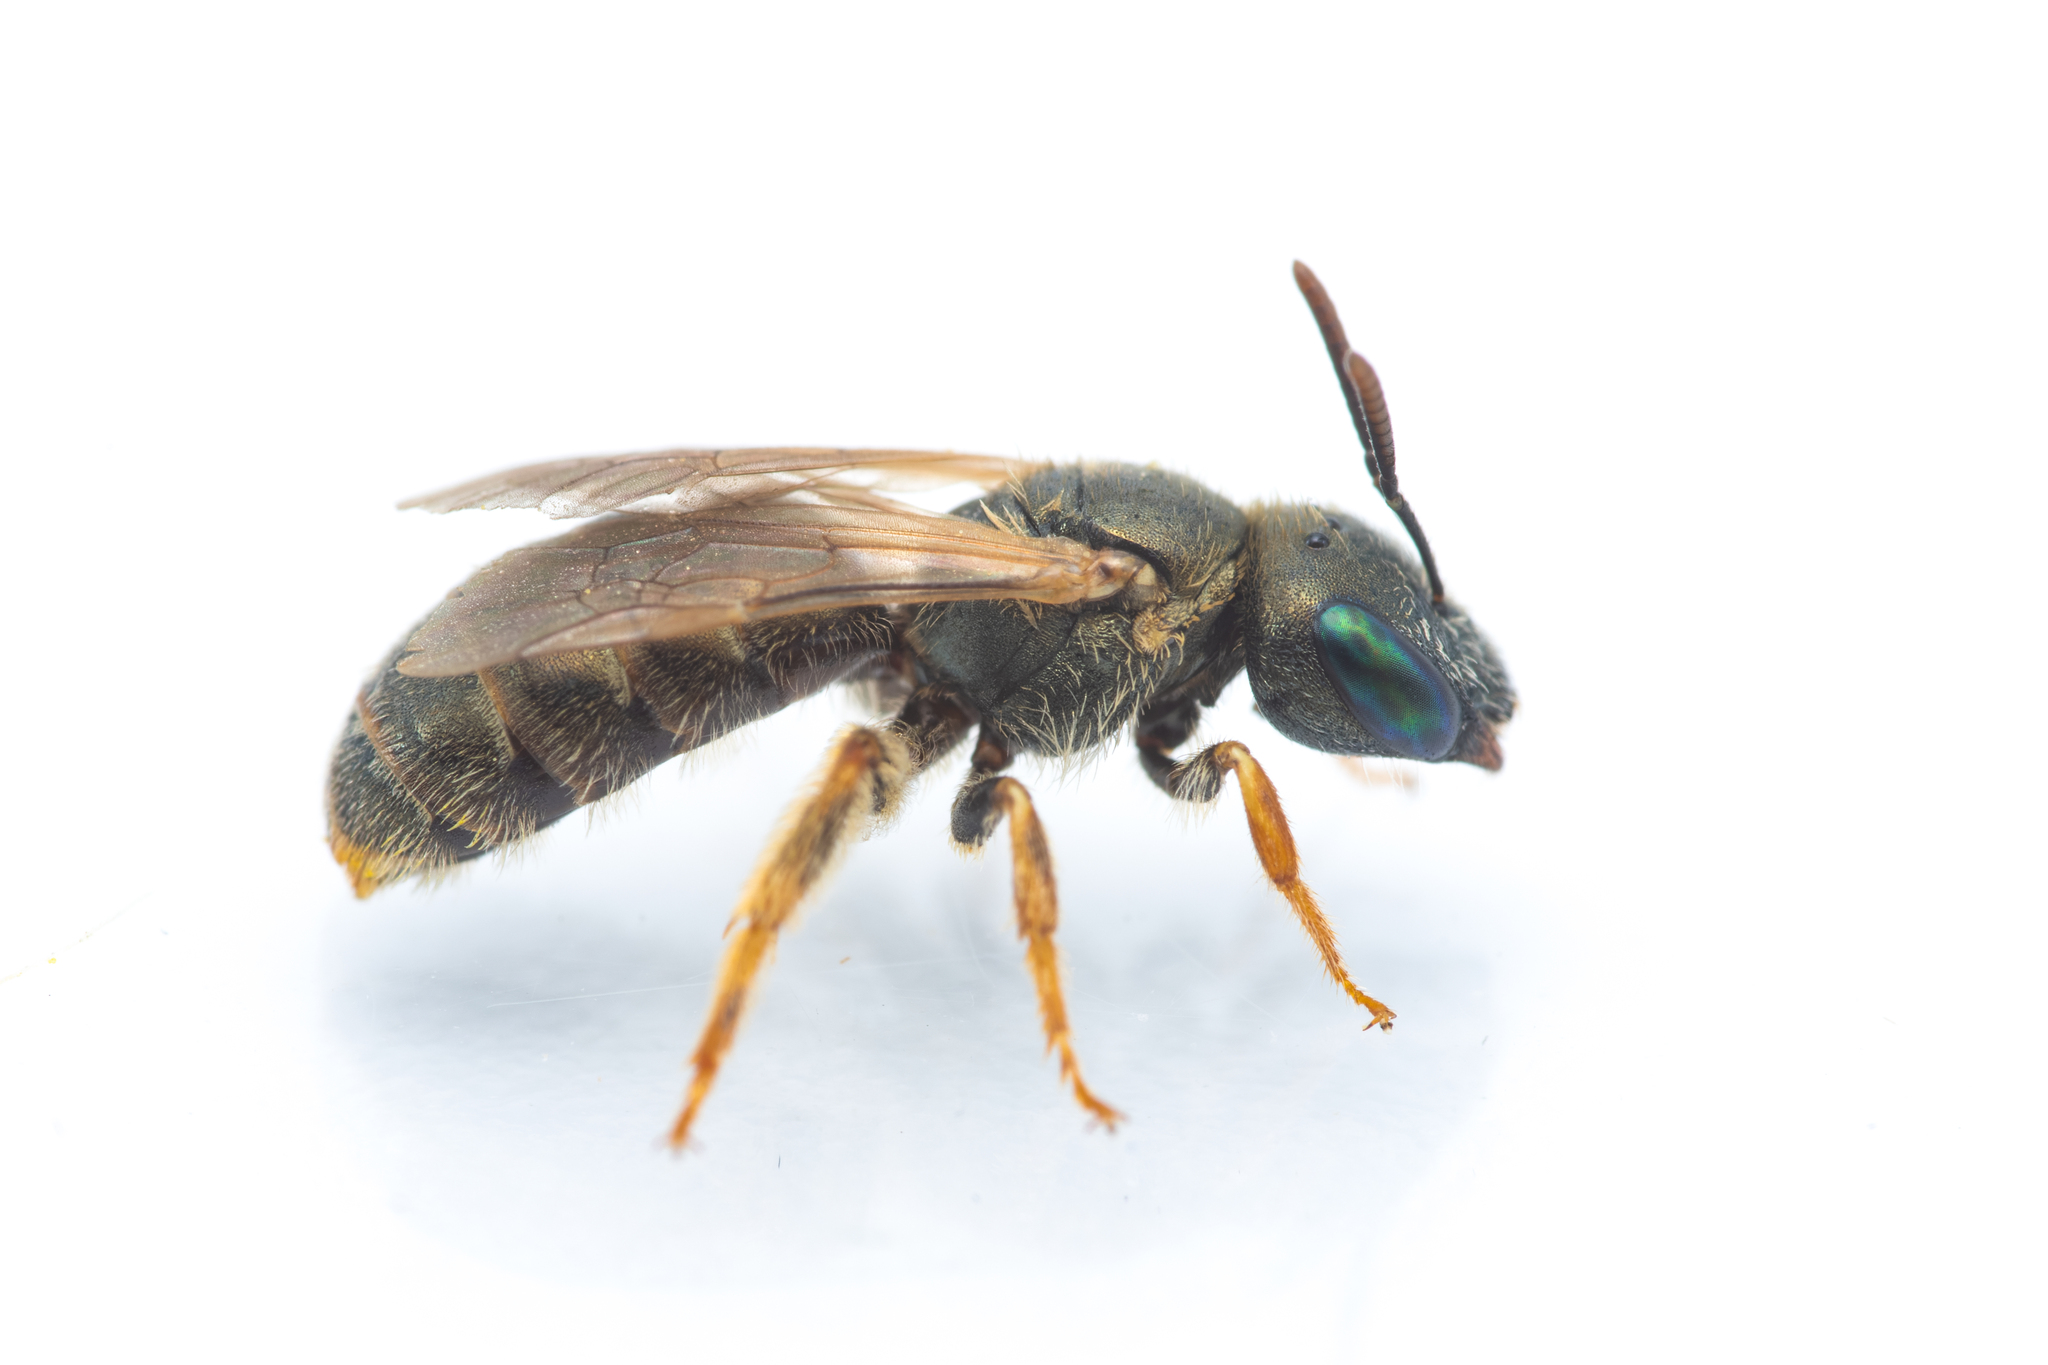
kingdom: Animalia
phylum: Arthropoda
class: Insecta
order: Hymenoptera
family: Halictidae
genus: Halictus
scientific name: Halictus gemmeus
